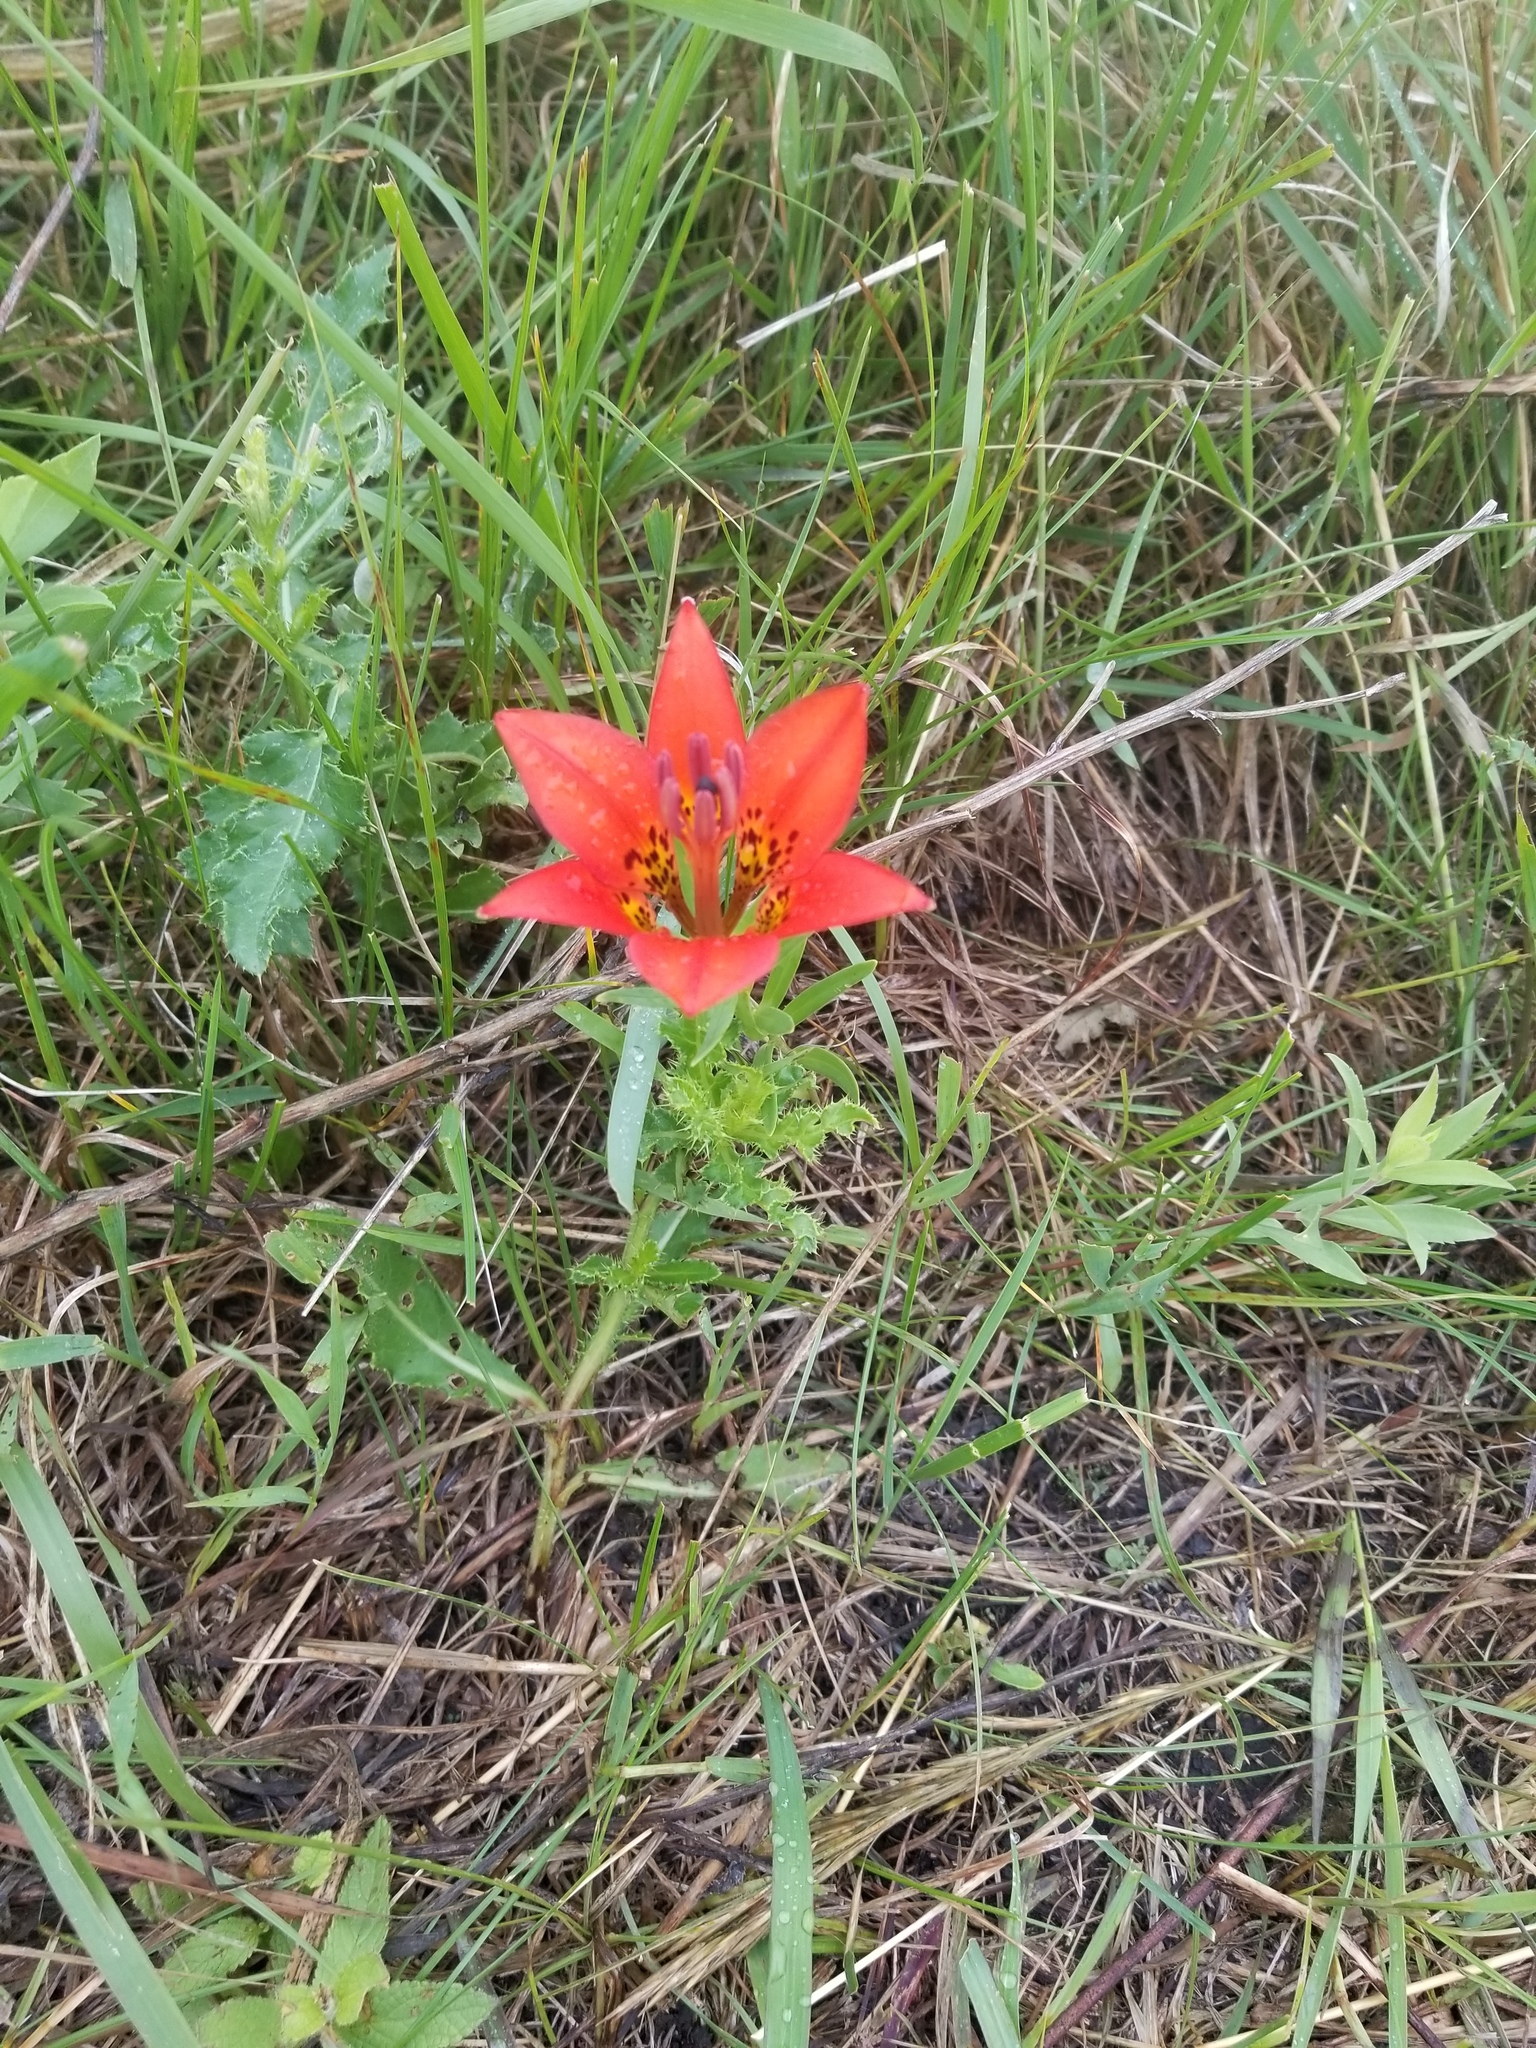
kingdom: Plantae
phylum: Tracheophyta
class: Liliopsida
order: Liliales
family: Liliaceae
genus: Lilium
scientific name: Lilium philadelphicum
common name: Red lily
